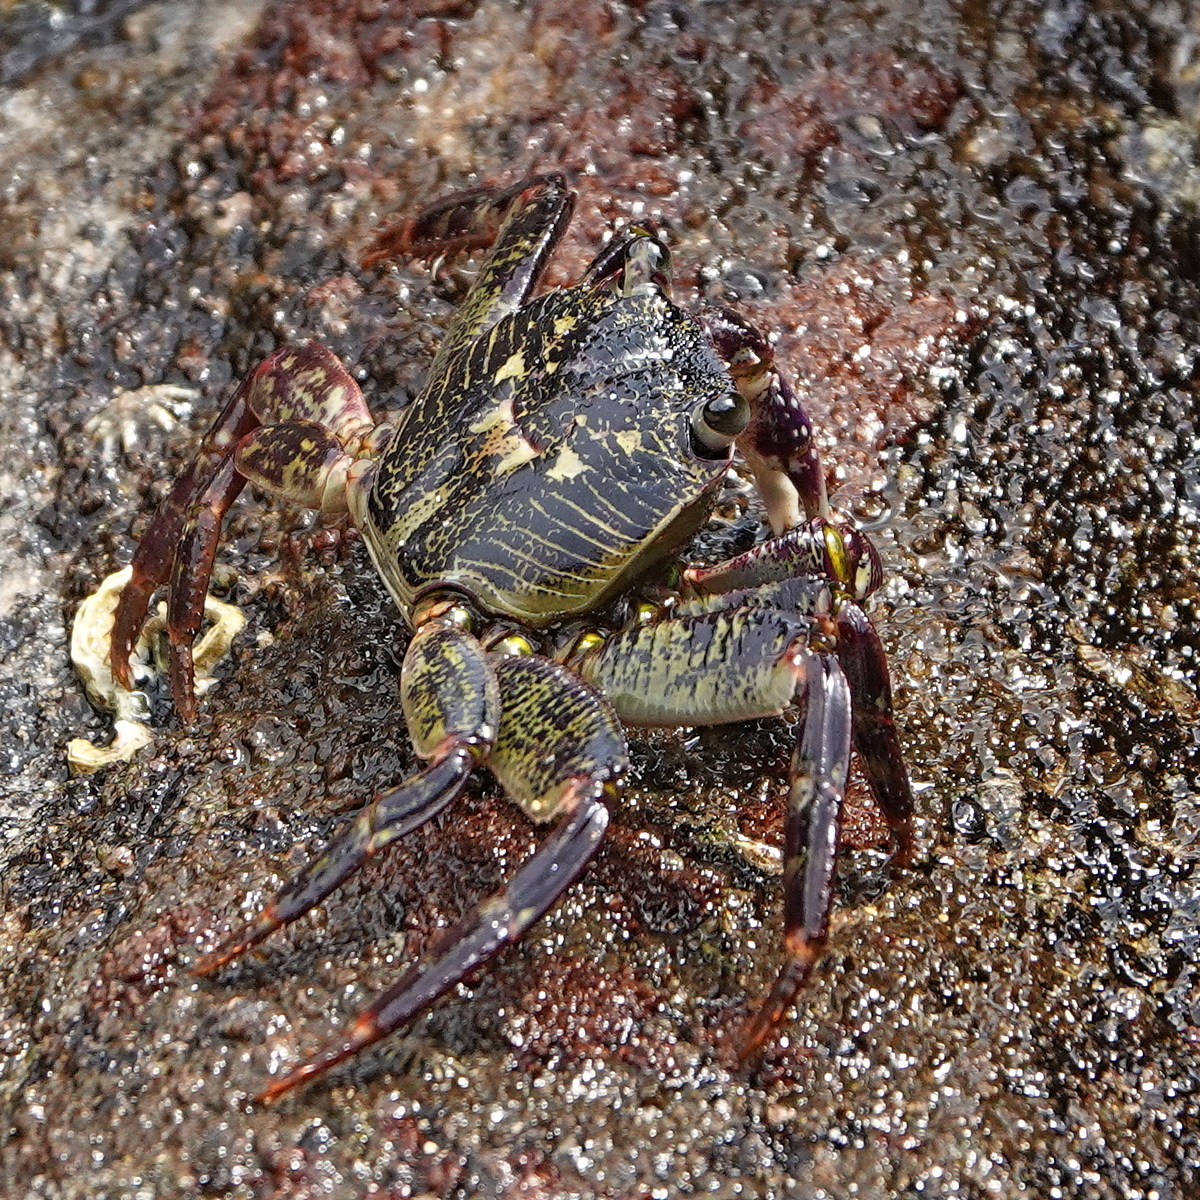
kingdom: Animalia
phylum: Arthropoda
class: Malacostraca
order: Decapoda
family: Grapsidae
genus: Leptograpsus
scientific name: Leptograpsus variegatus
